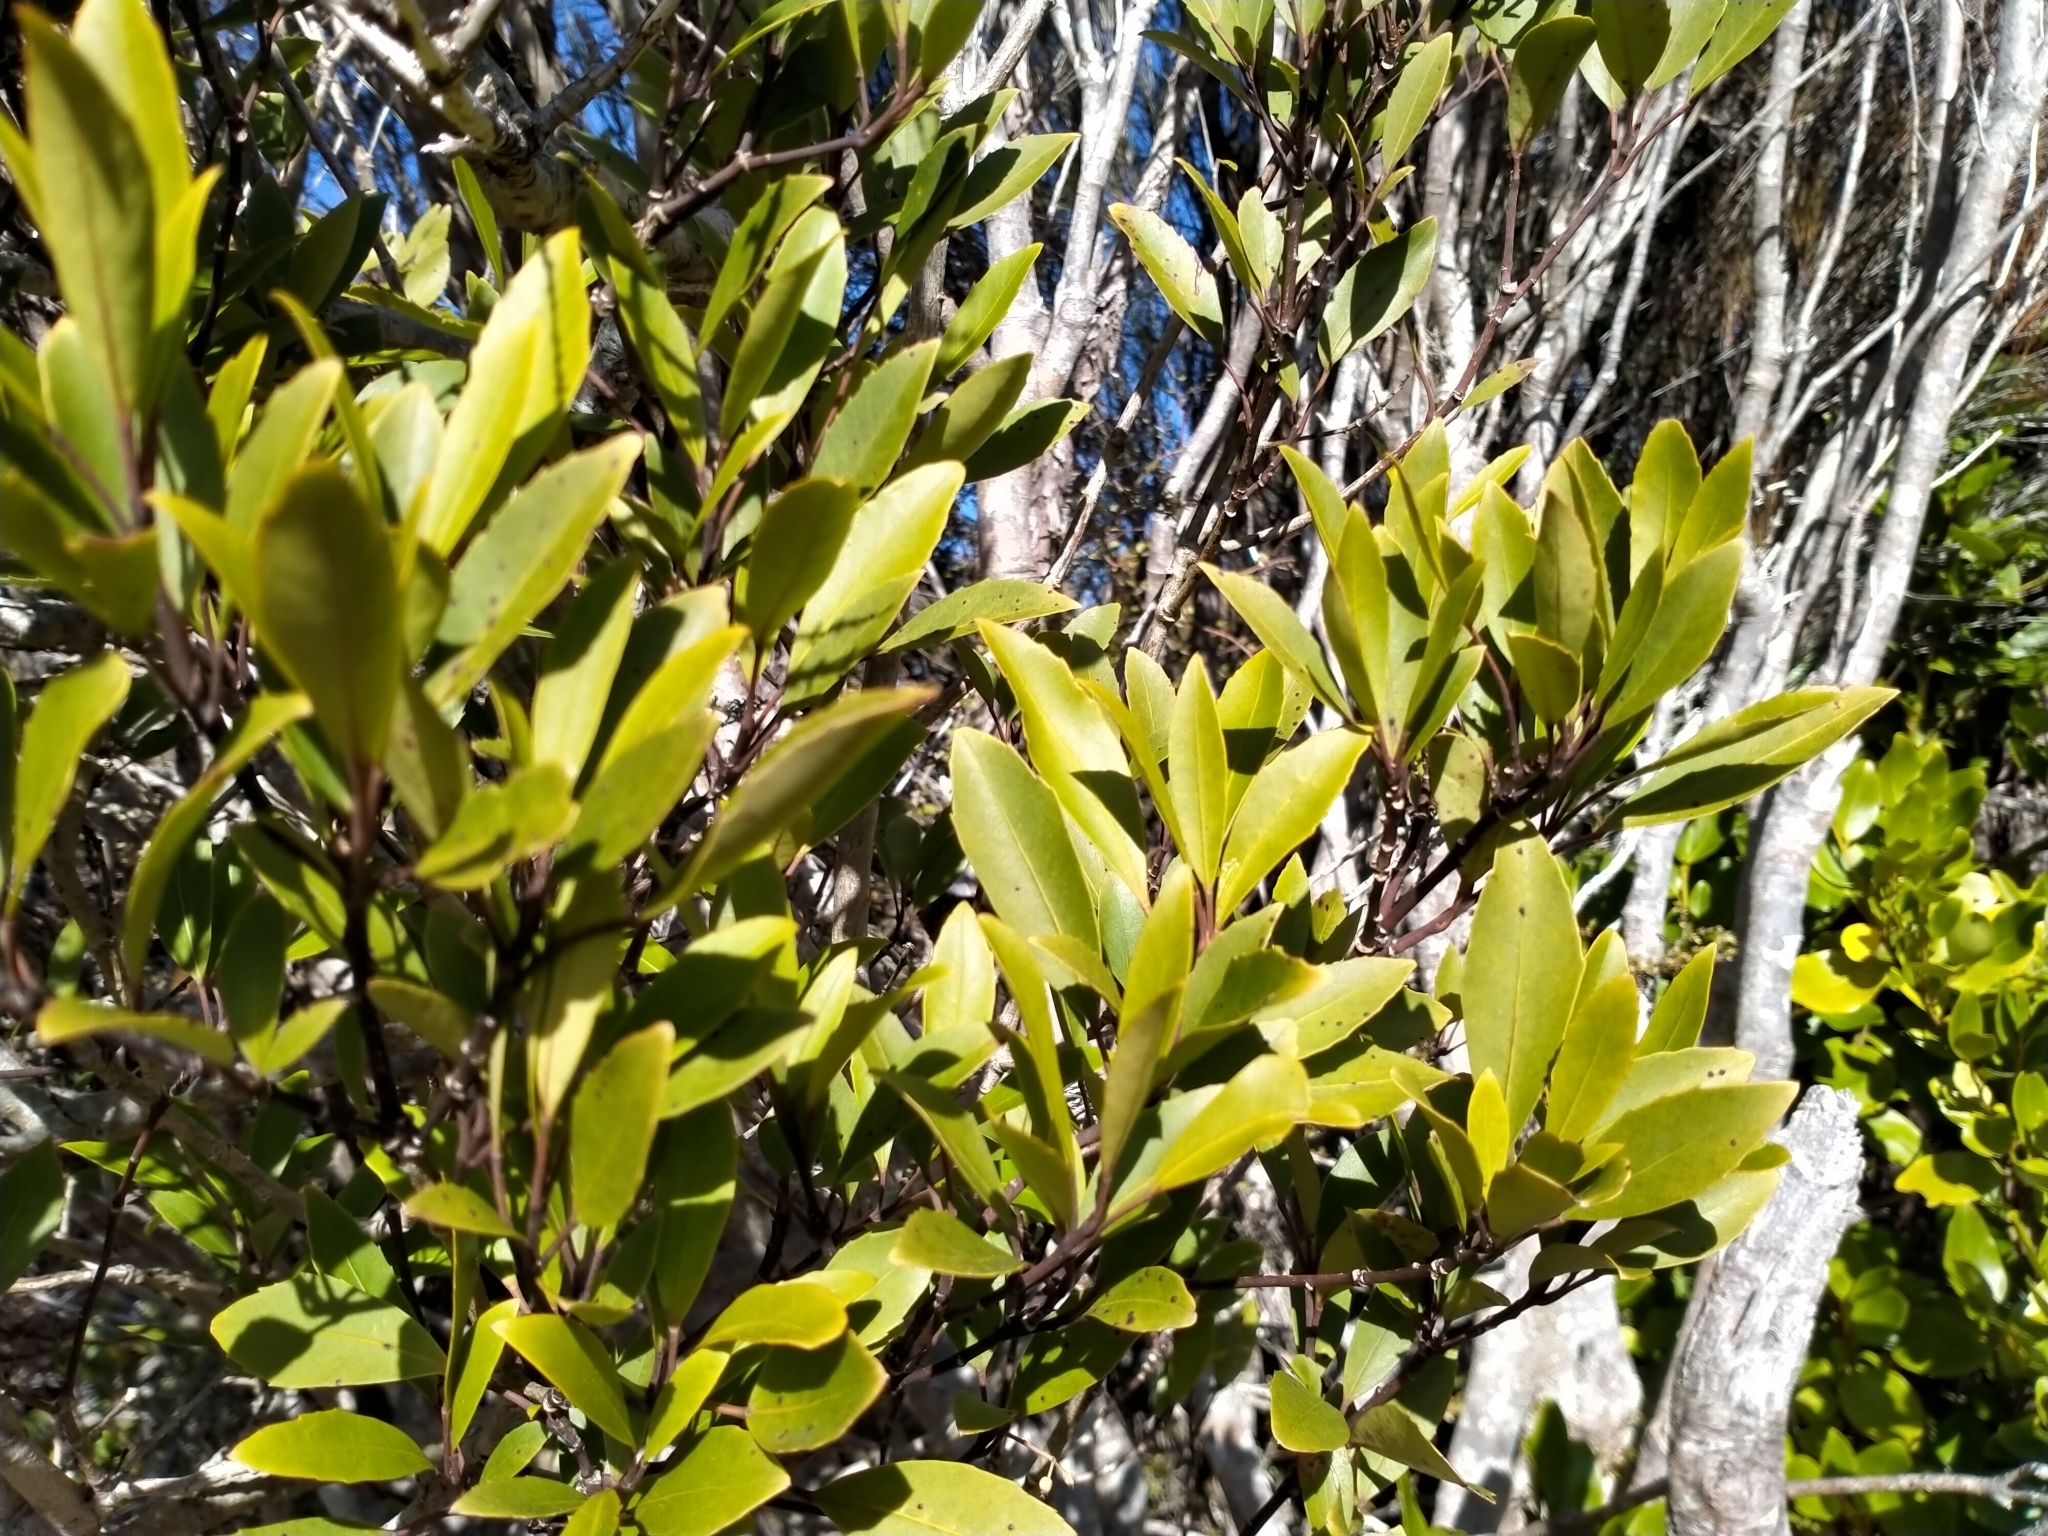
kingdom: Plantae
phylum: Tracheophyta
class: Magnoliopsida
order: Apiales
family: Araliaceae
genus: Raukaua
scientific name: Raukaua simplex
